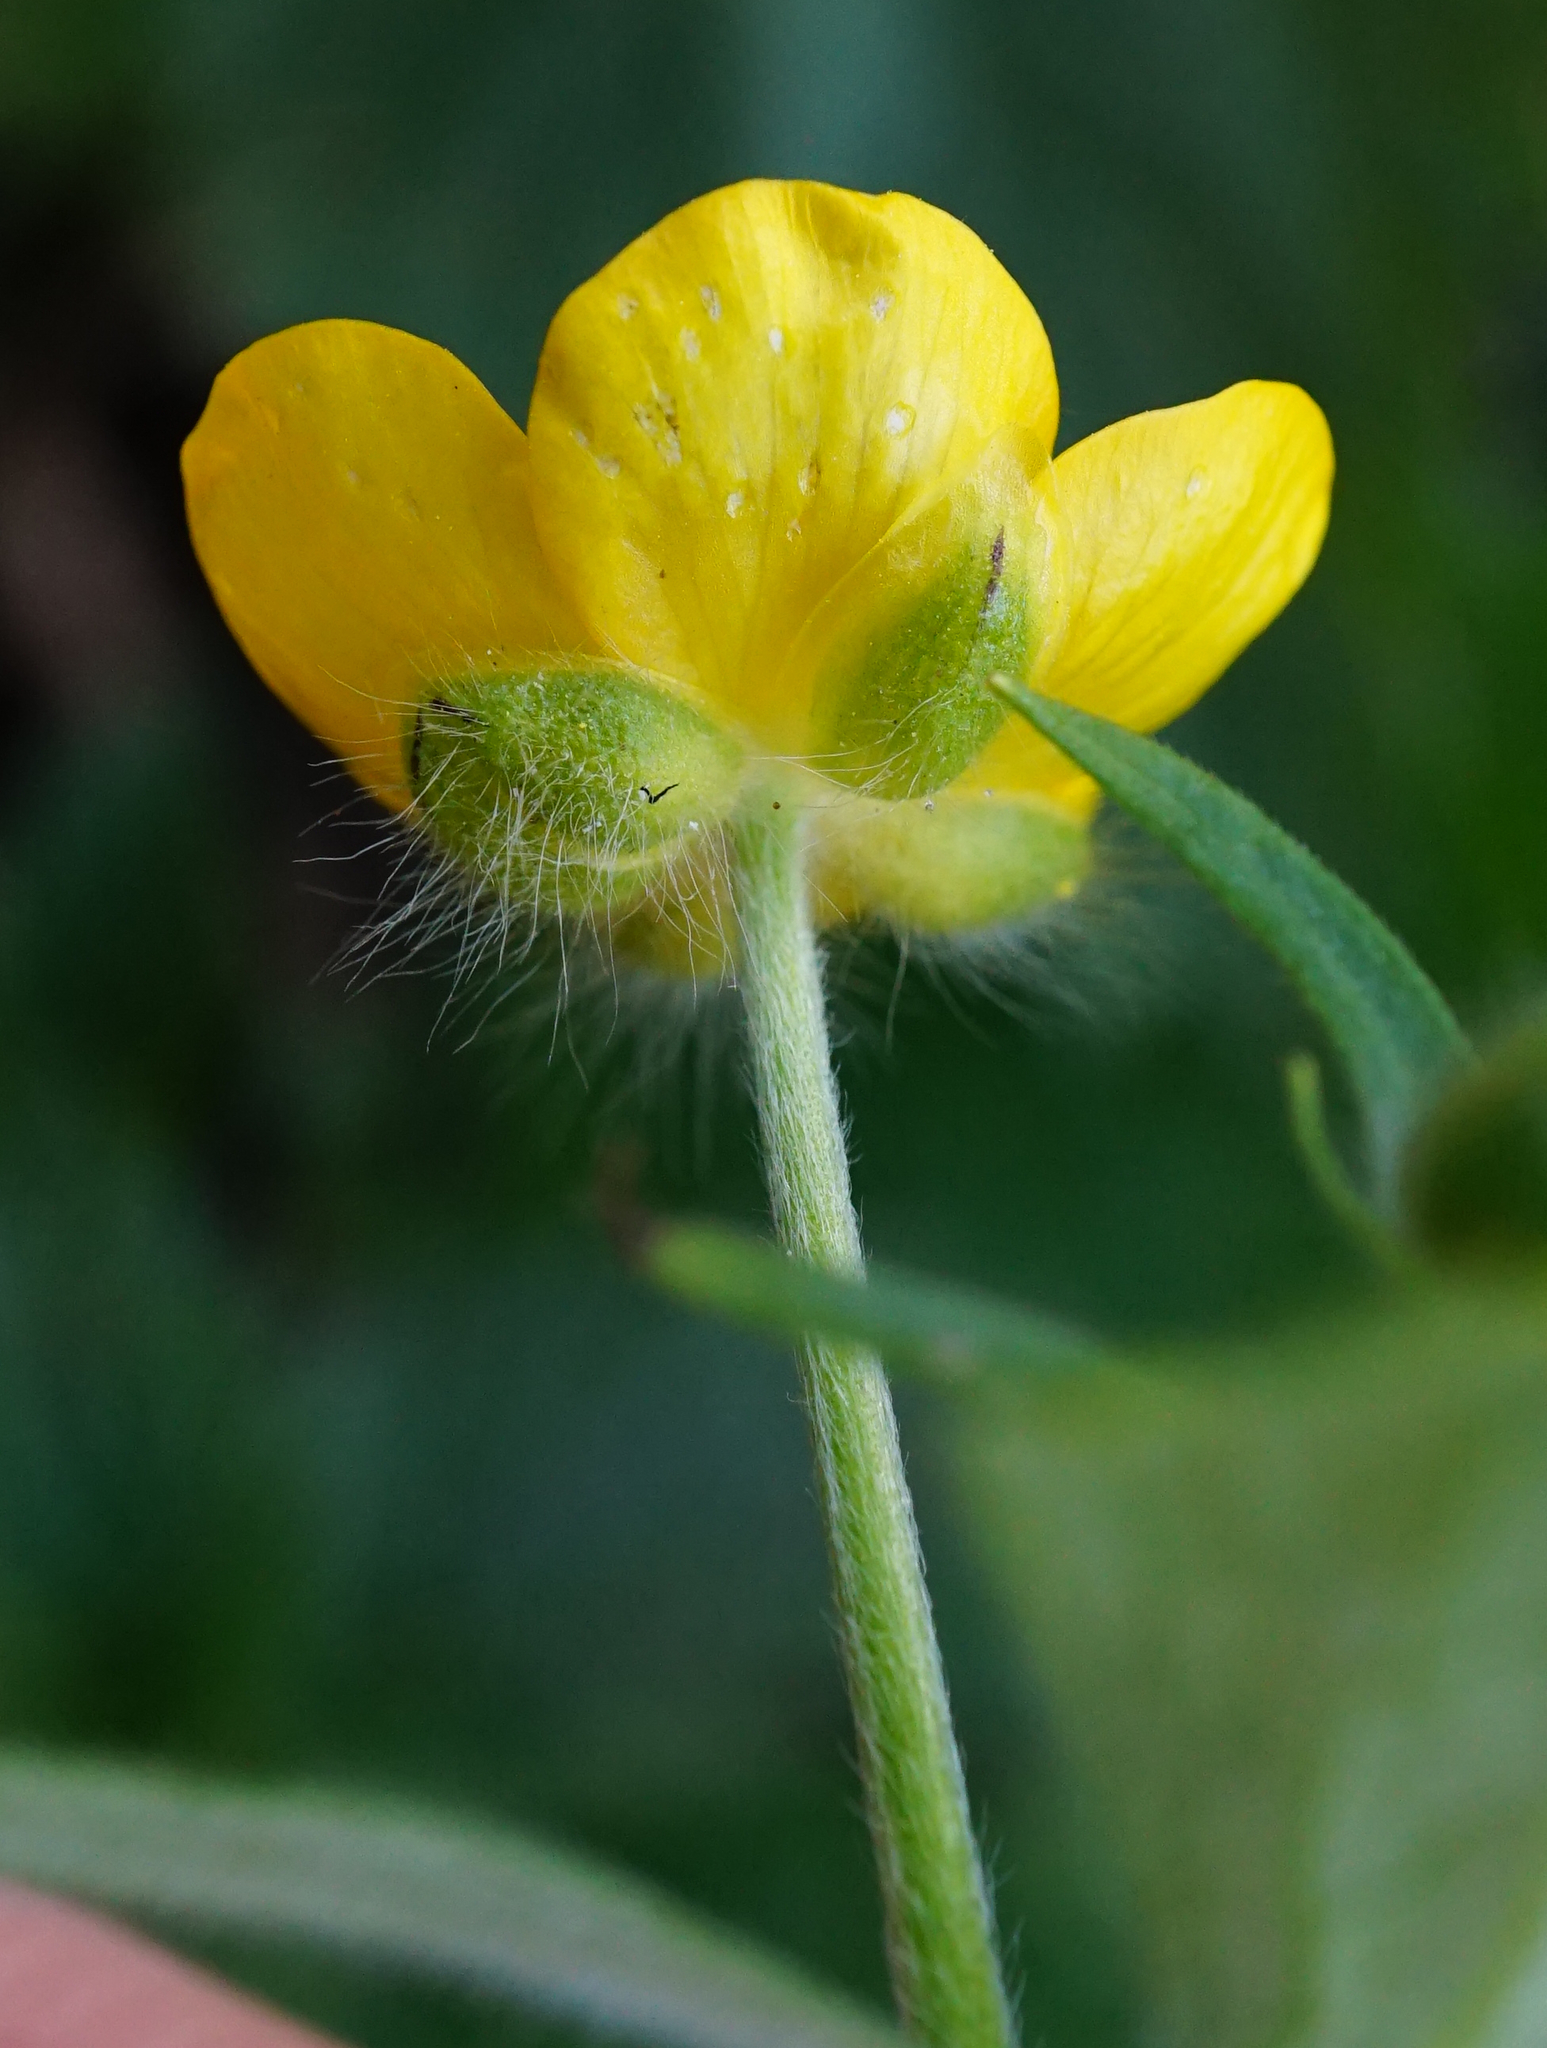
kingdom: Plantae
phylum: Tracheophyta
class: Magnoliopsida
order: Ranunculales
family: Ranunculaceae
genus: Ranunculus
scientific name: Ranunculus lanuginosus
